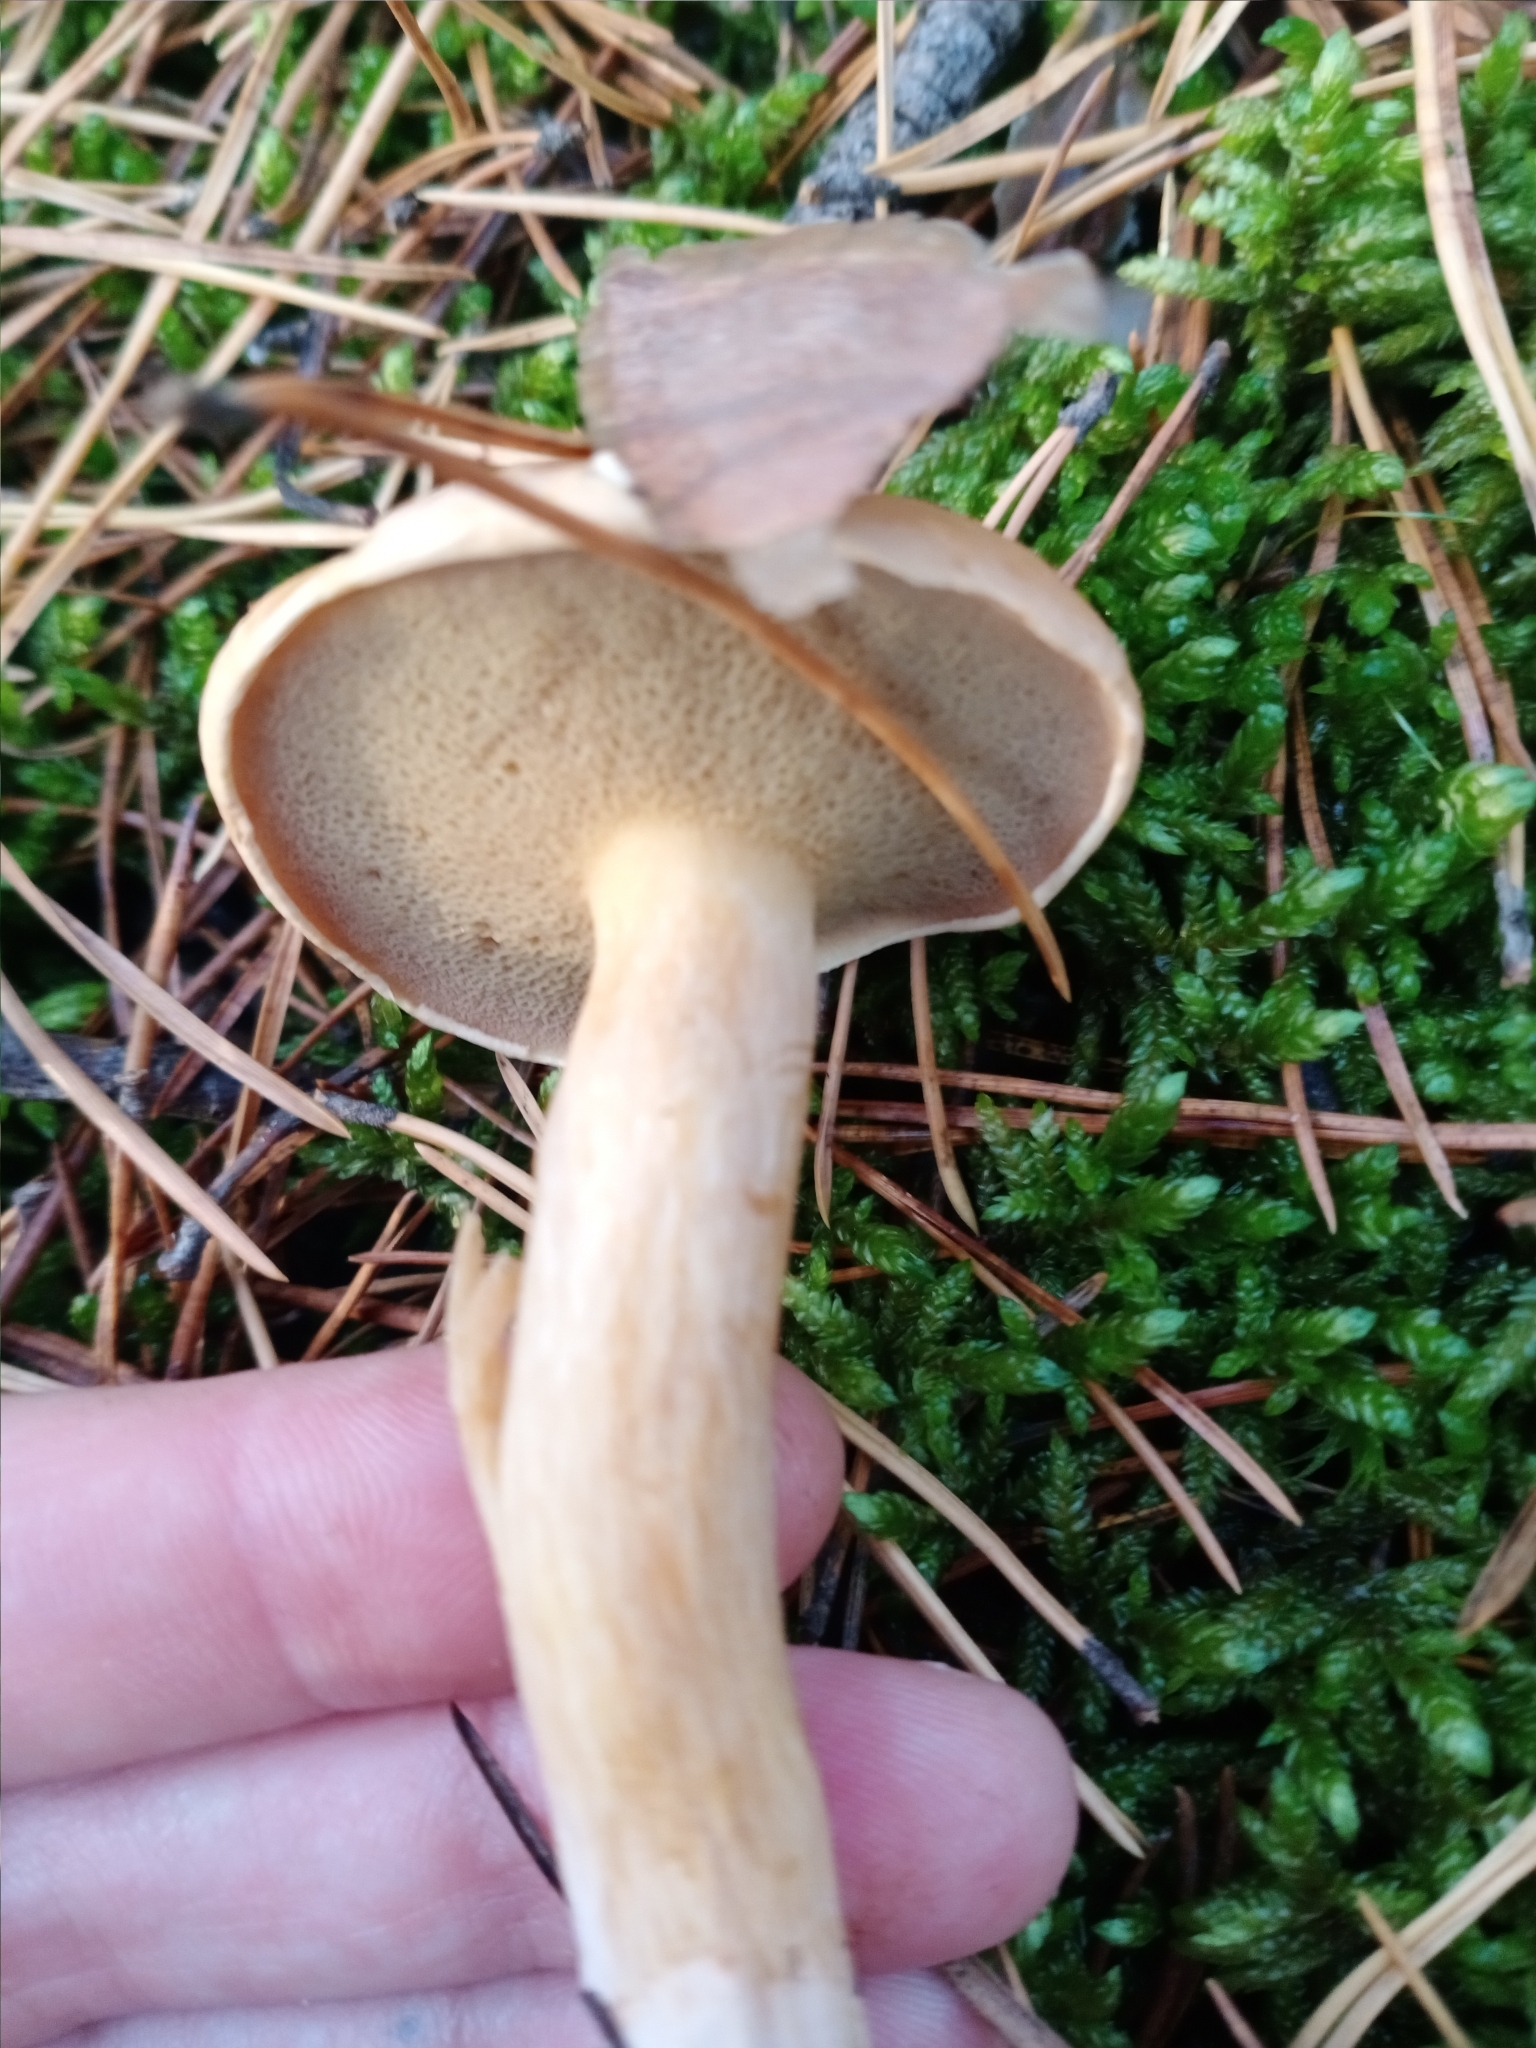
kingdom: Fungi
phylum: Basidiomycota
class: Agaricomycetes
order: Boletales
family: Suillaceae
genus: Suillus
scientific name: Suillus bovinus
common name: Bovine bolete
